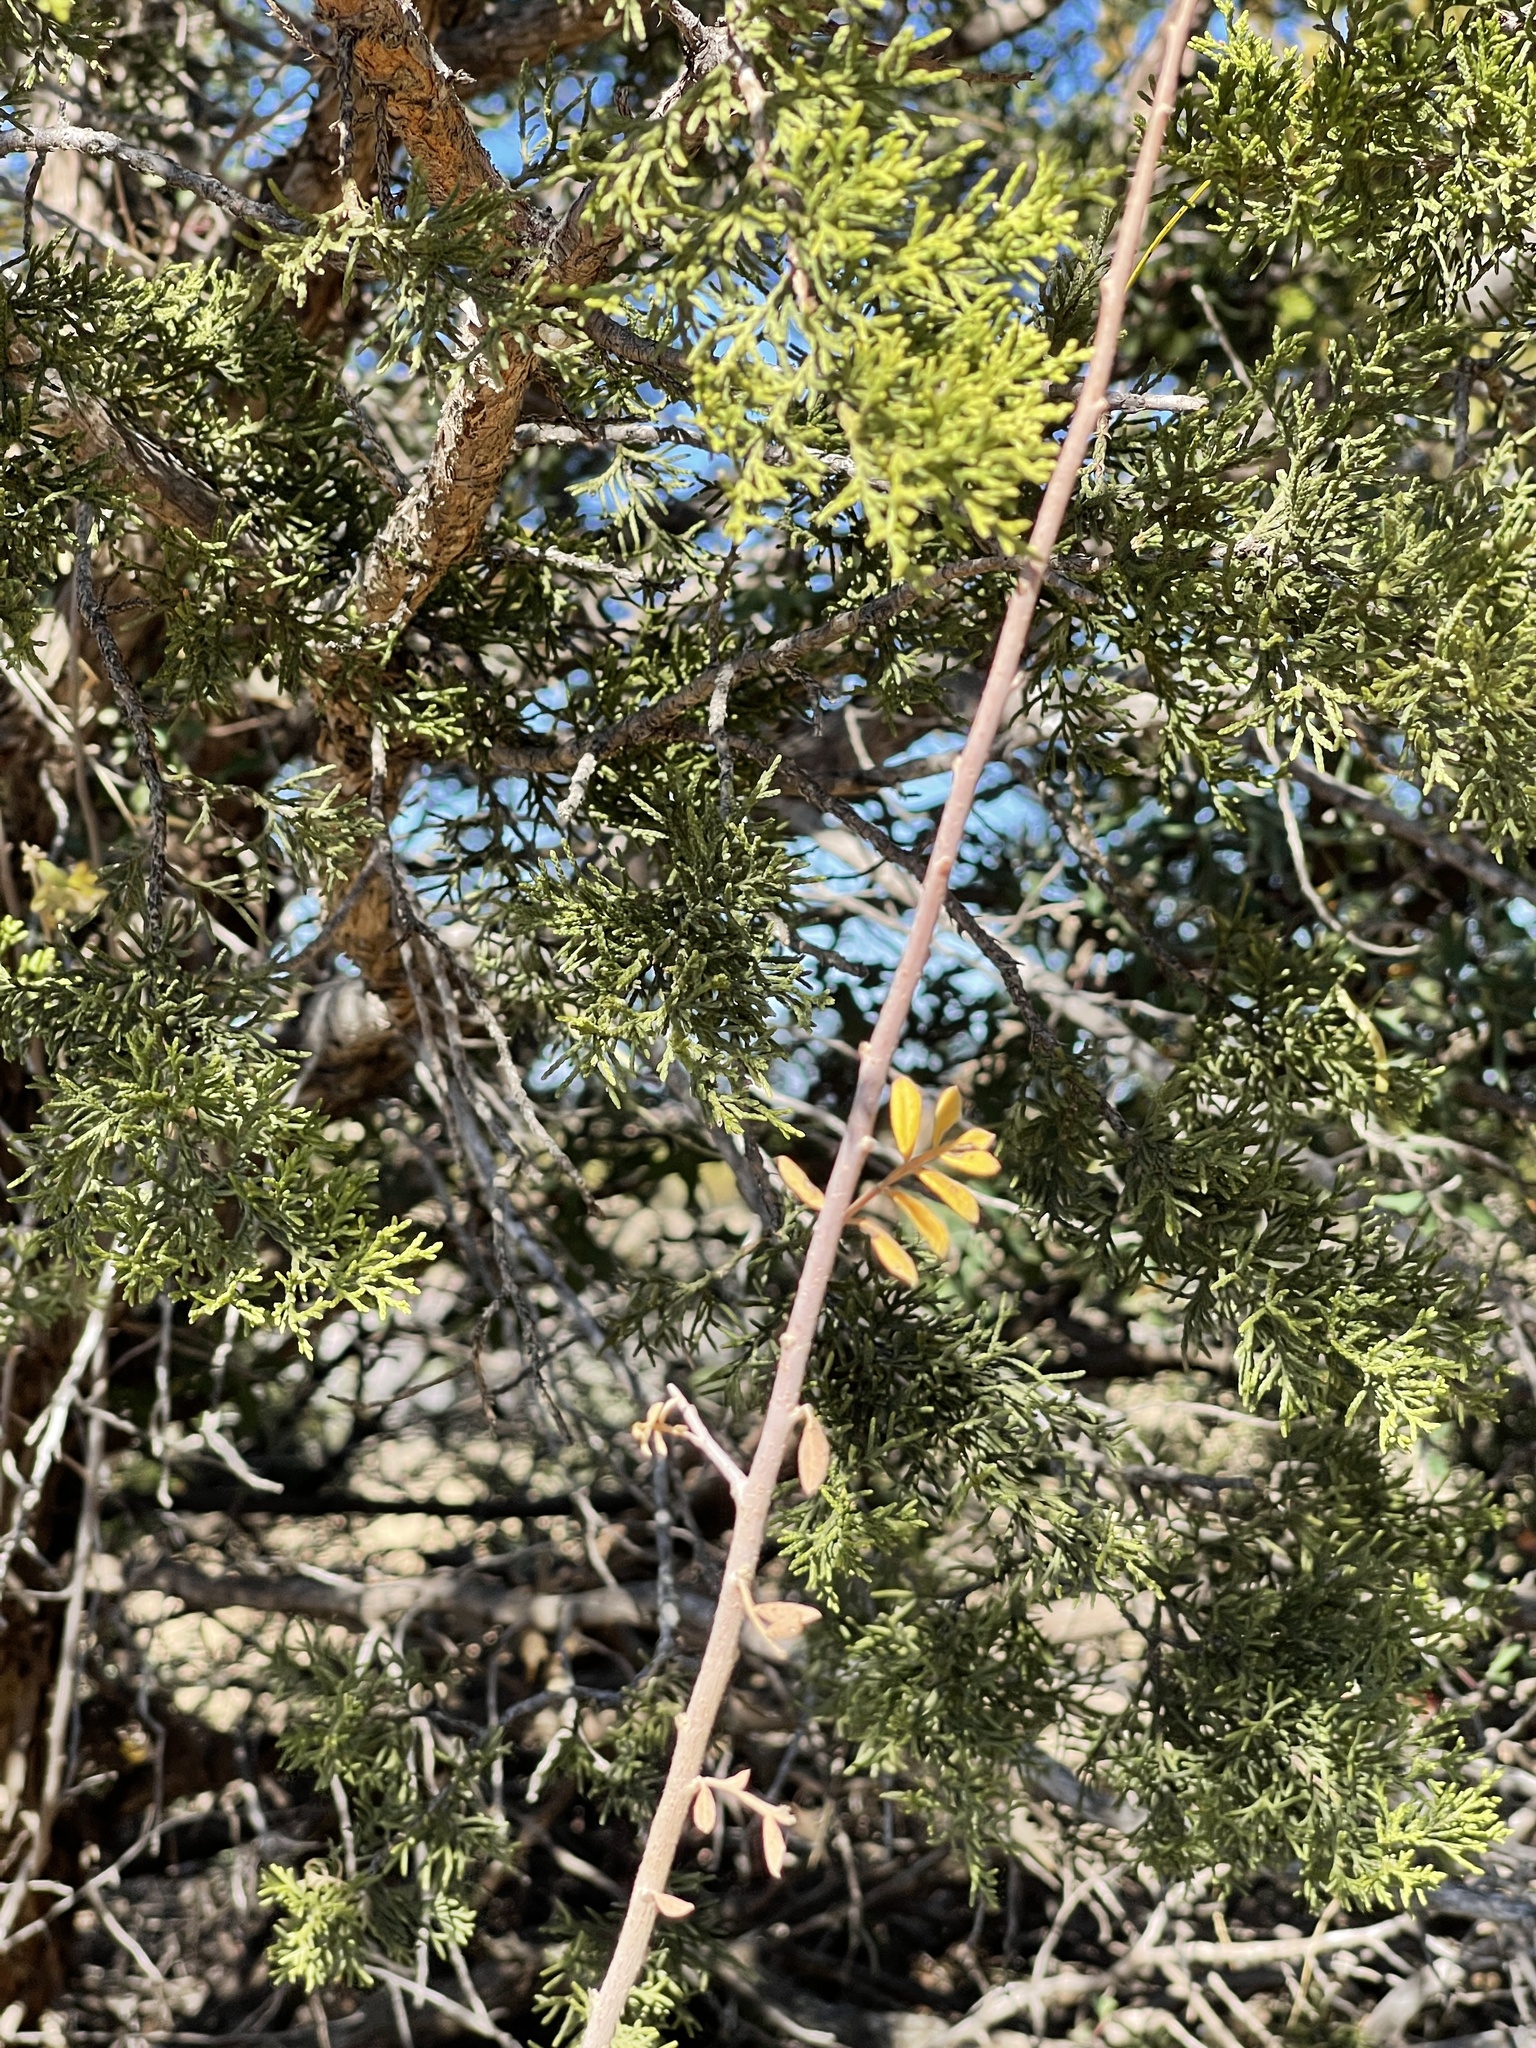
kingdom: Plantae
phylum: Tracheophyta
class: Magnoliopsida
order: Sapindales
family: Anacardiaceae
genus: Rhus
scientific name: Rhus microphylla
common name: Desert sumac
